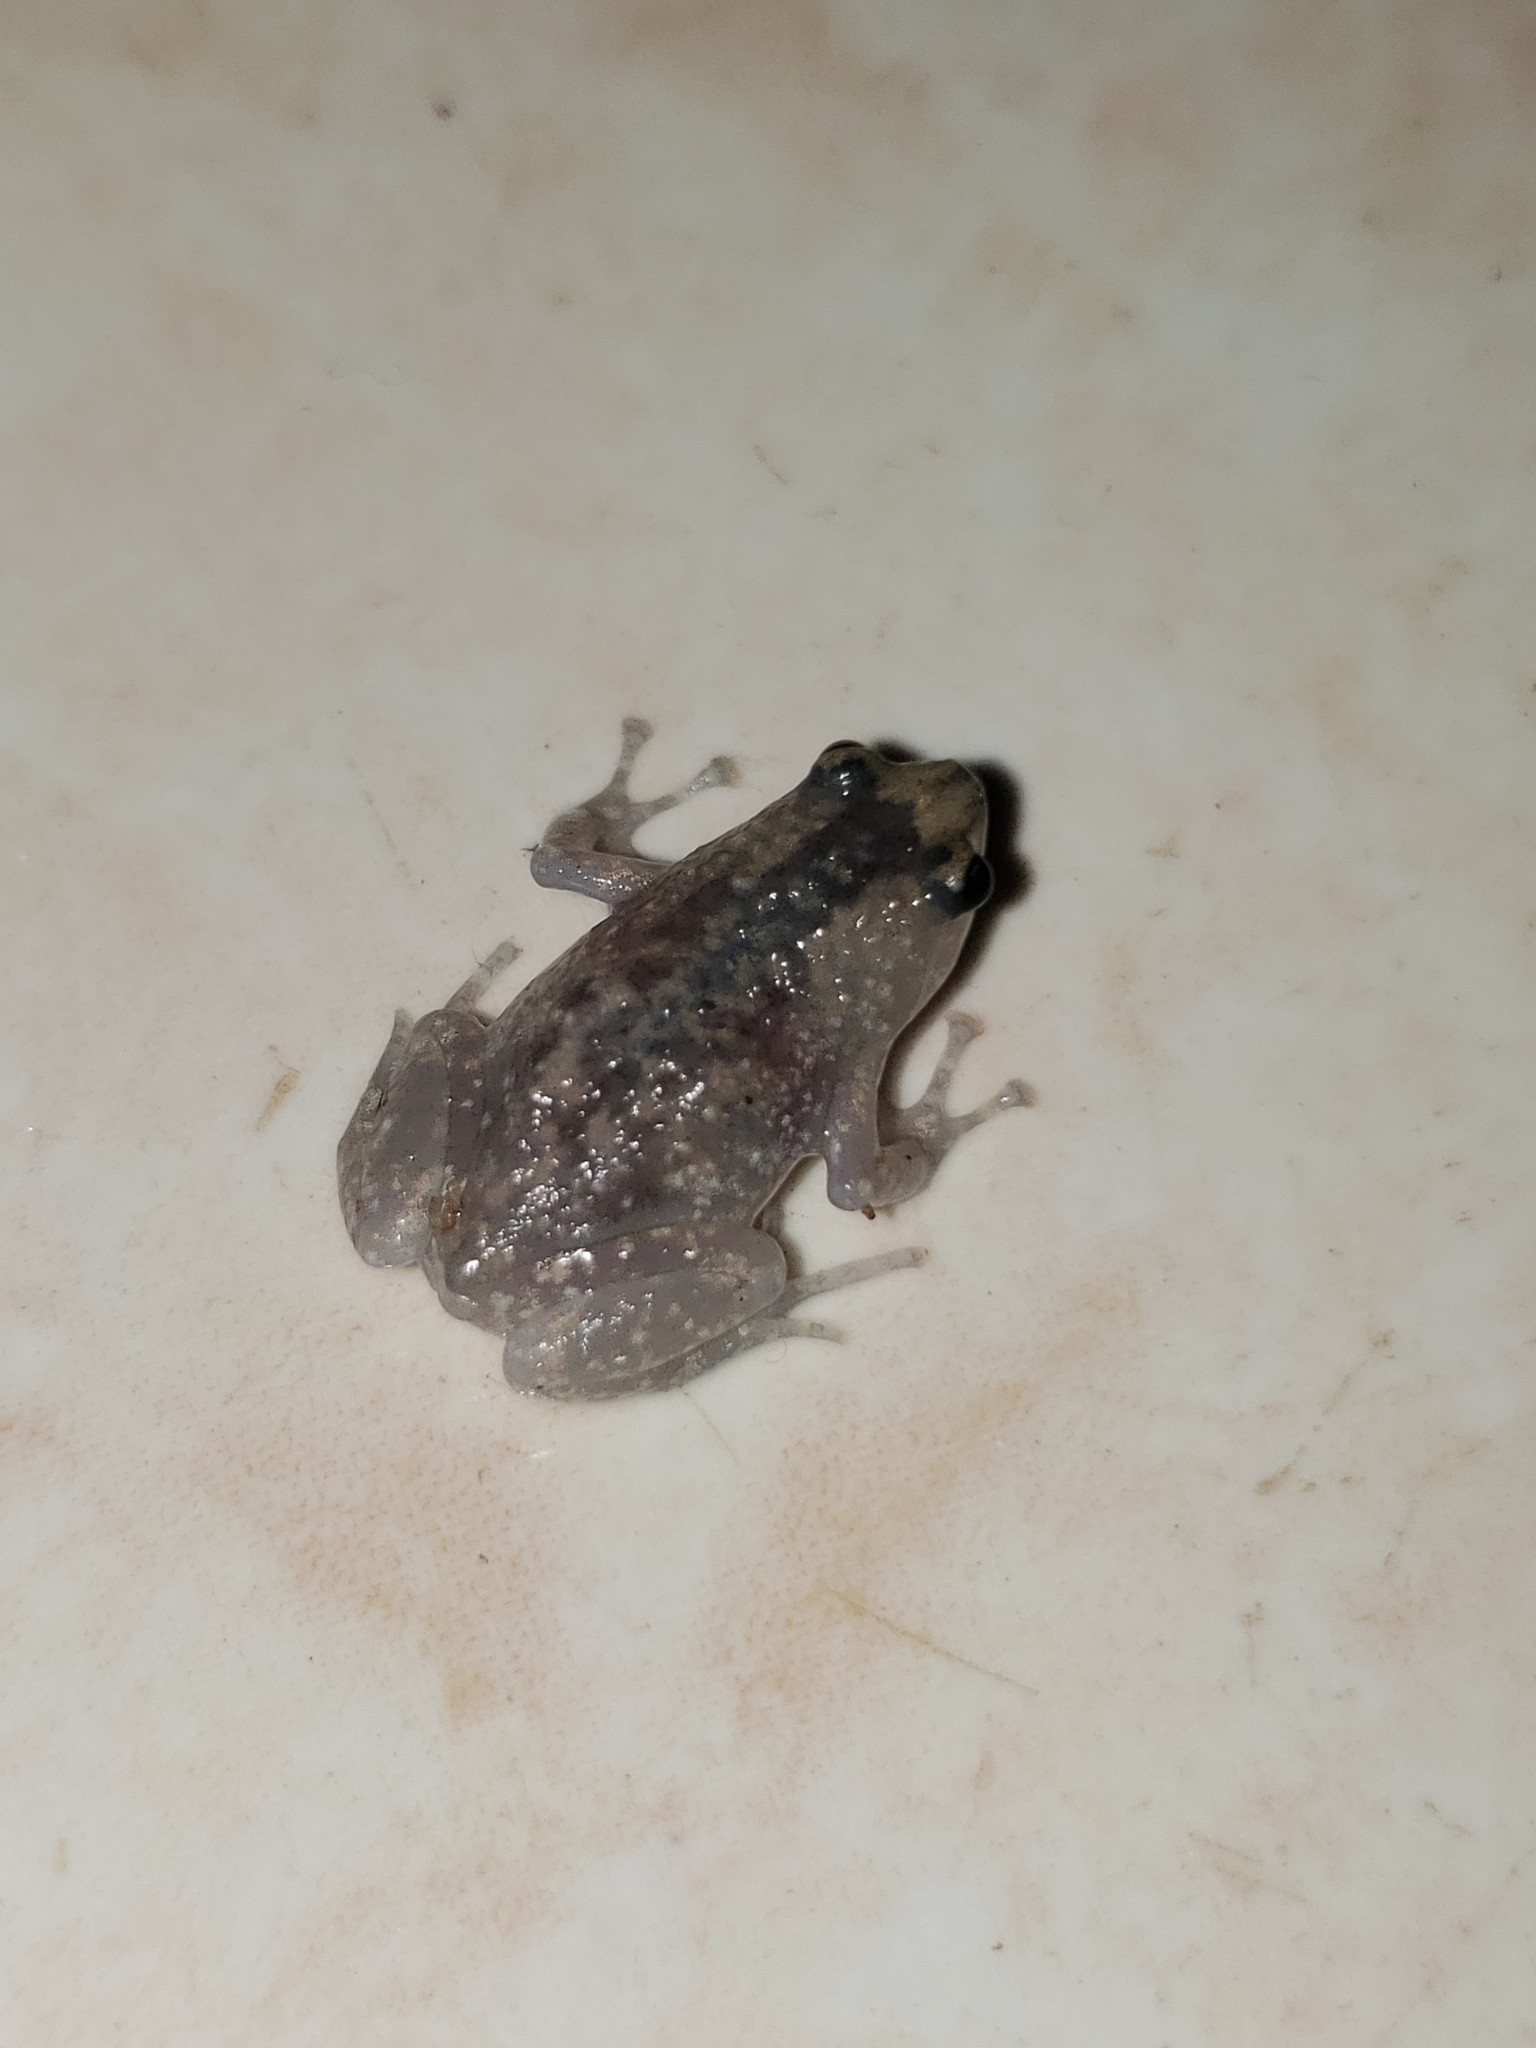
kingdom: Animalia
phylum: Chordata
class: Amphibia
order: Anura
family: Microhylidae
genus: Uperodon
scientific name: Uperodon rohani
